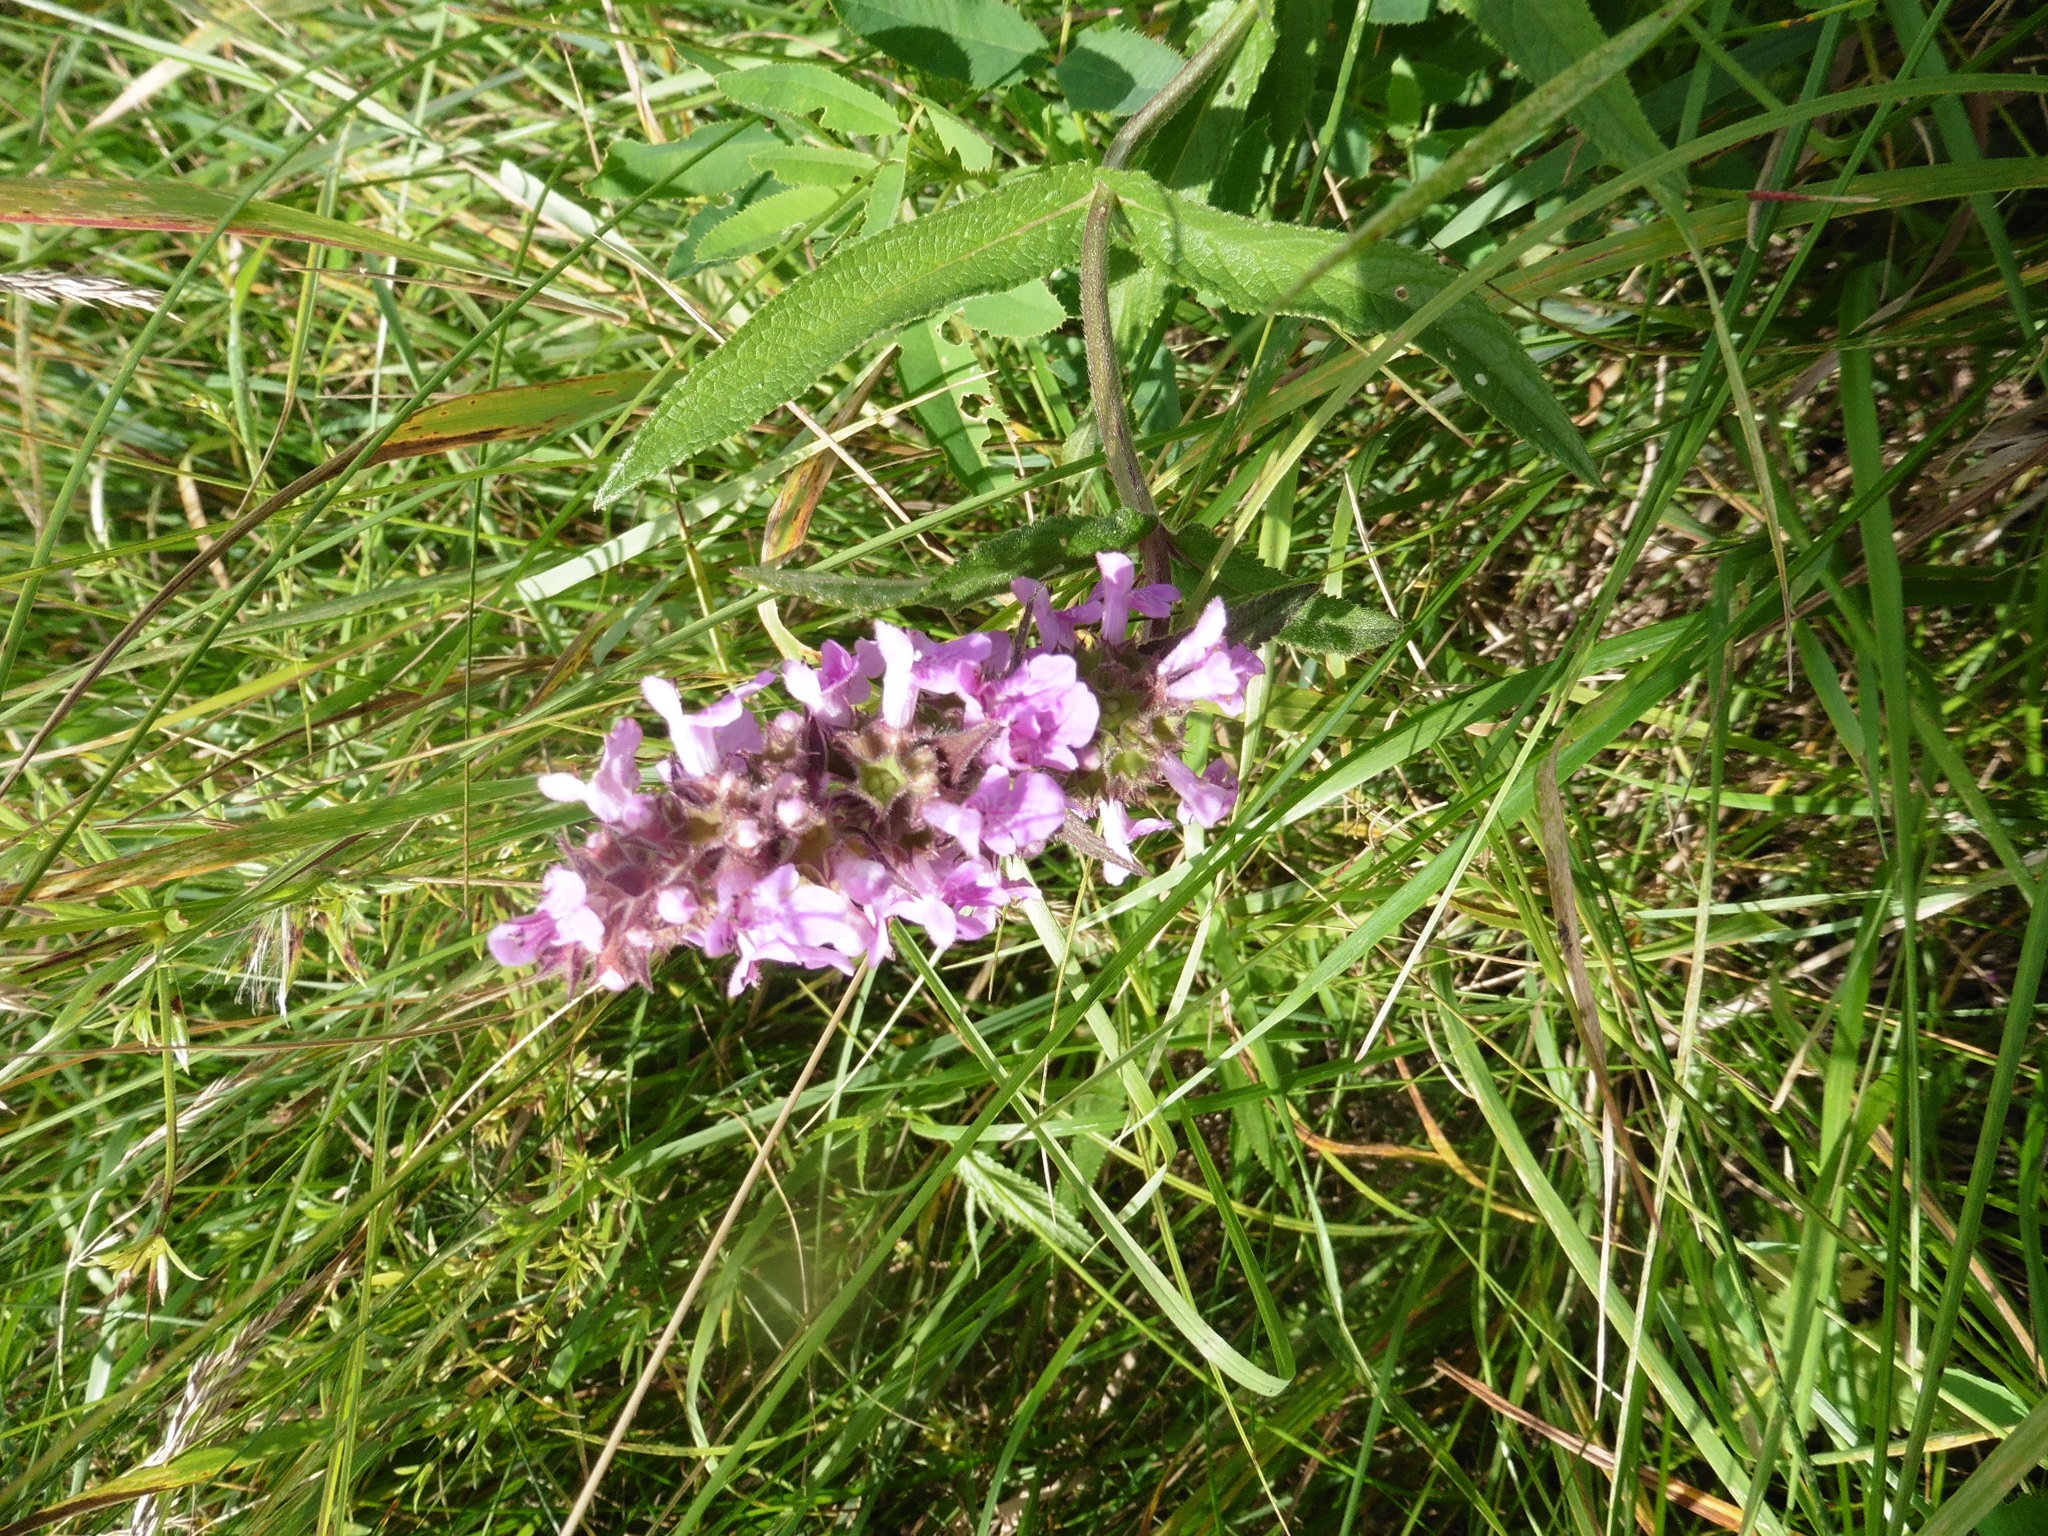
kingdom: Plantae
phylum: Tracheophyta
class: Magnoliopsida
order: Lamiales
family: Lamiaceae
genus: Stachys
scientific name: Stachys palustris
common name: Marsh woundwort
